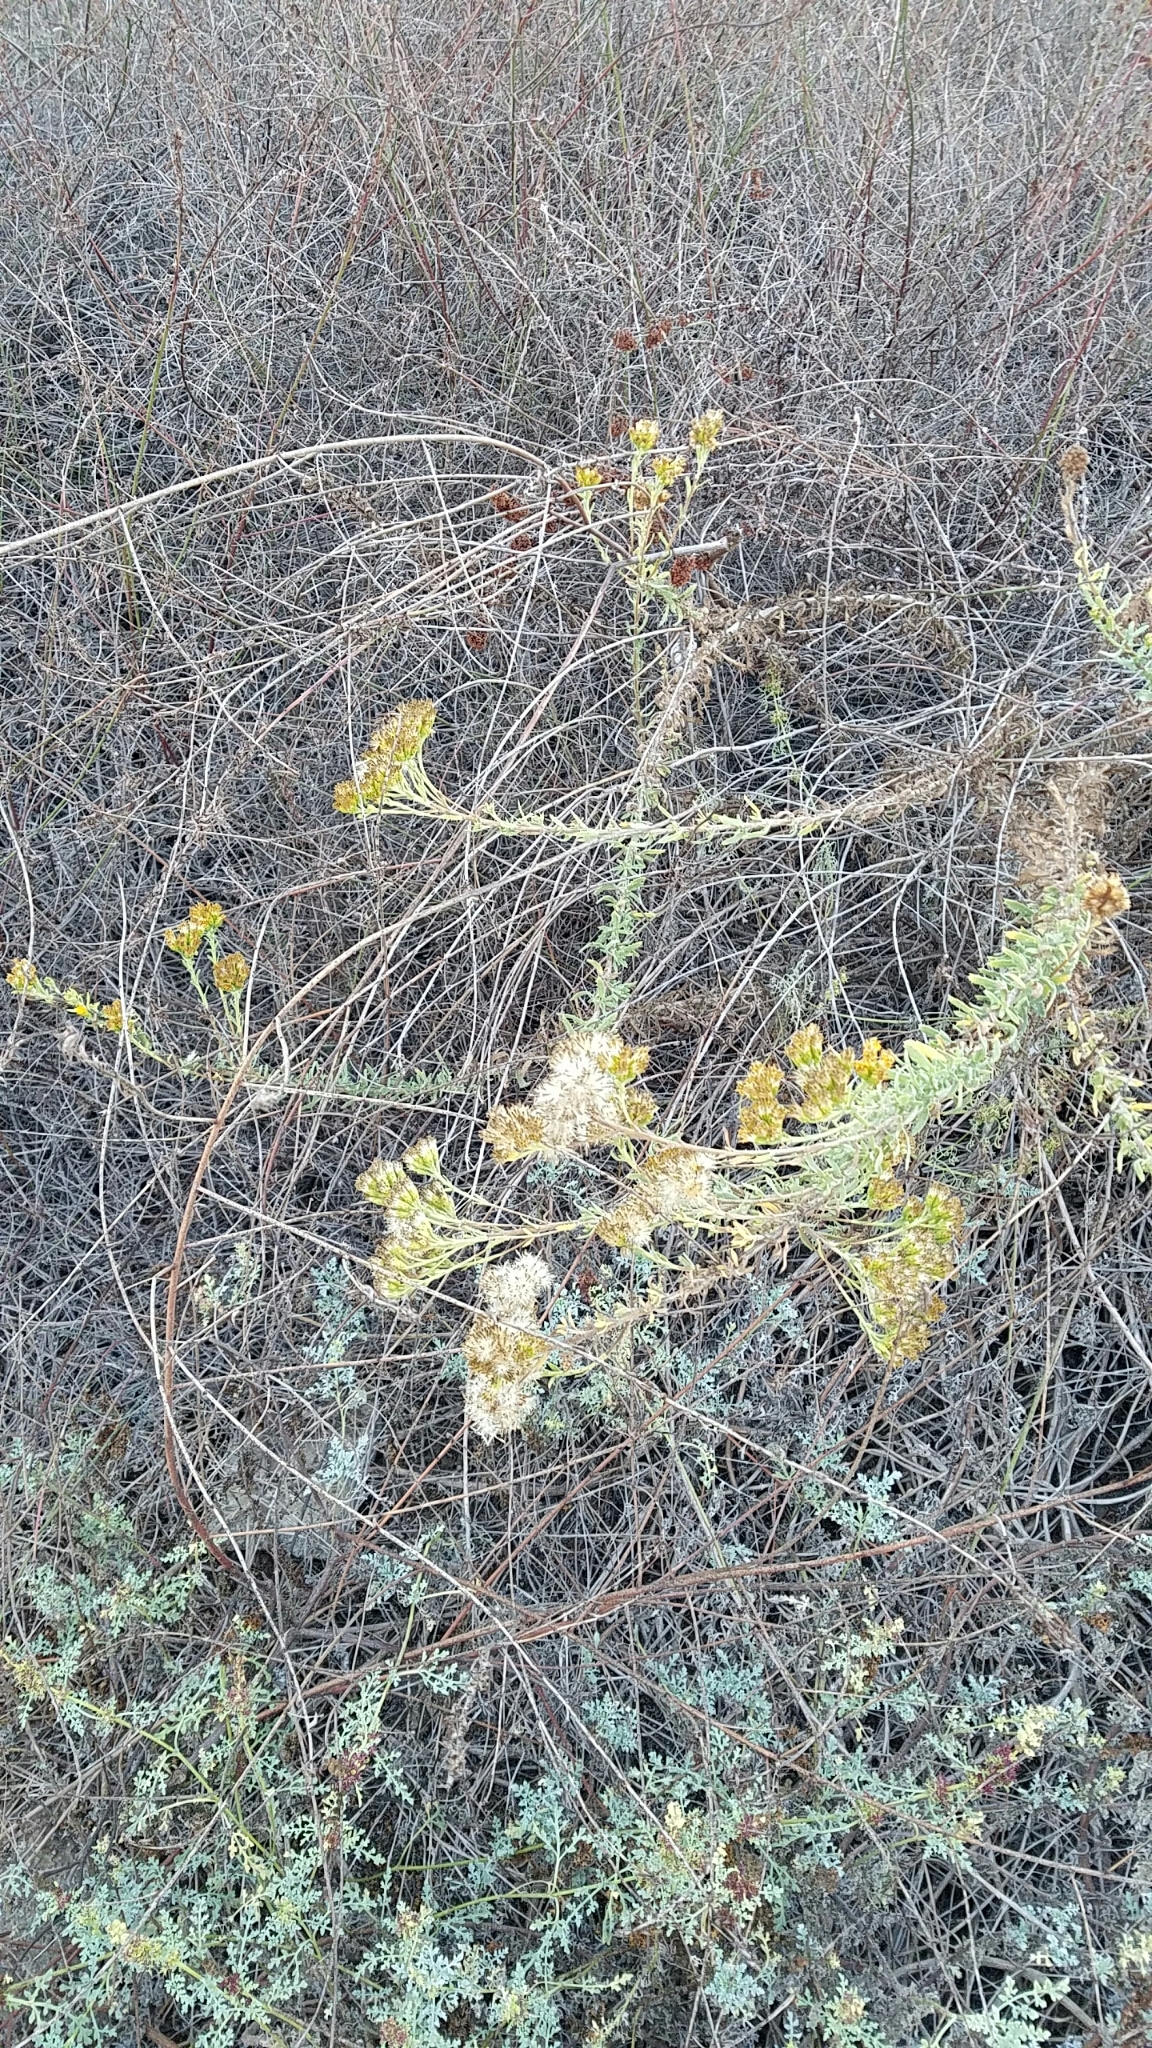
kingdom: Plantae
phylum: Tracheophyta
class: Magnoliopsida
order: Asterales
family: Asteraceae
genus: Isocoma
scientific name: Isocoma menziesii
